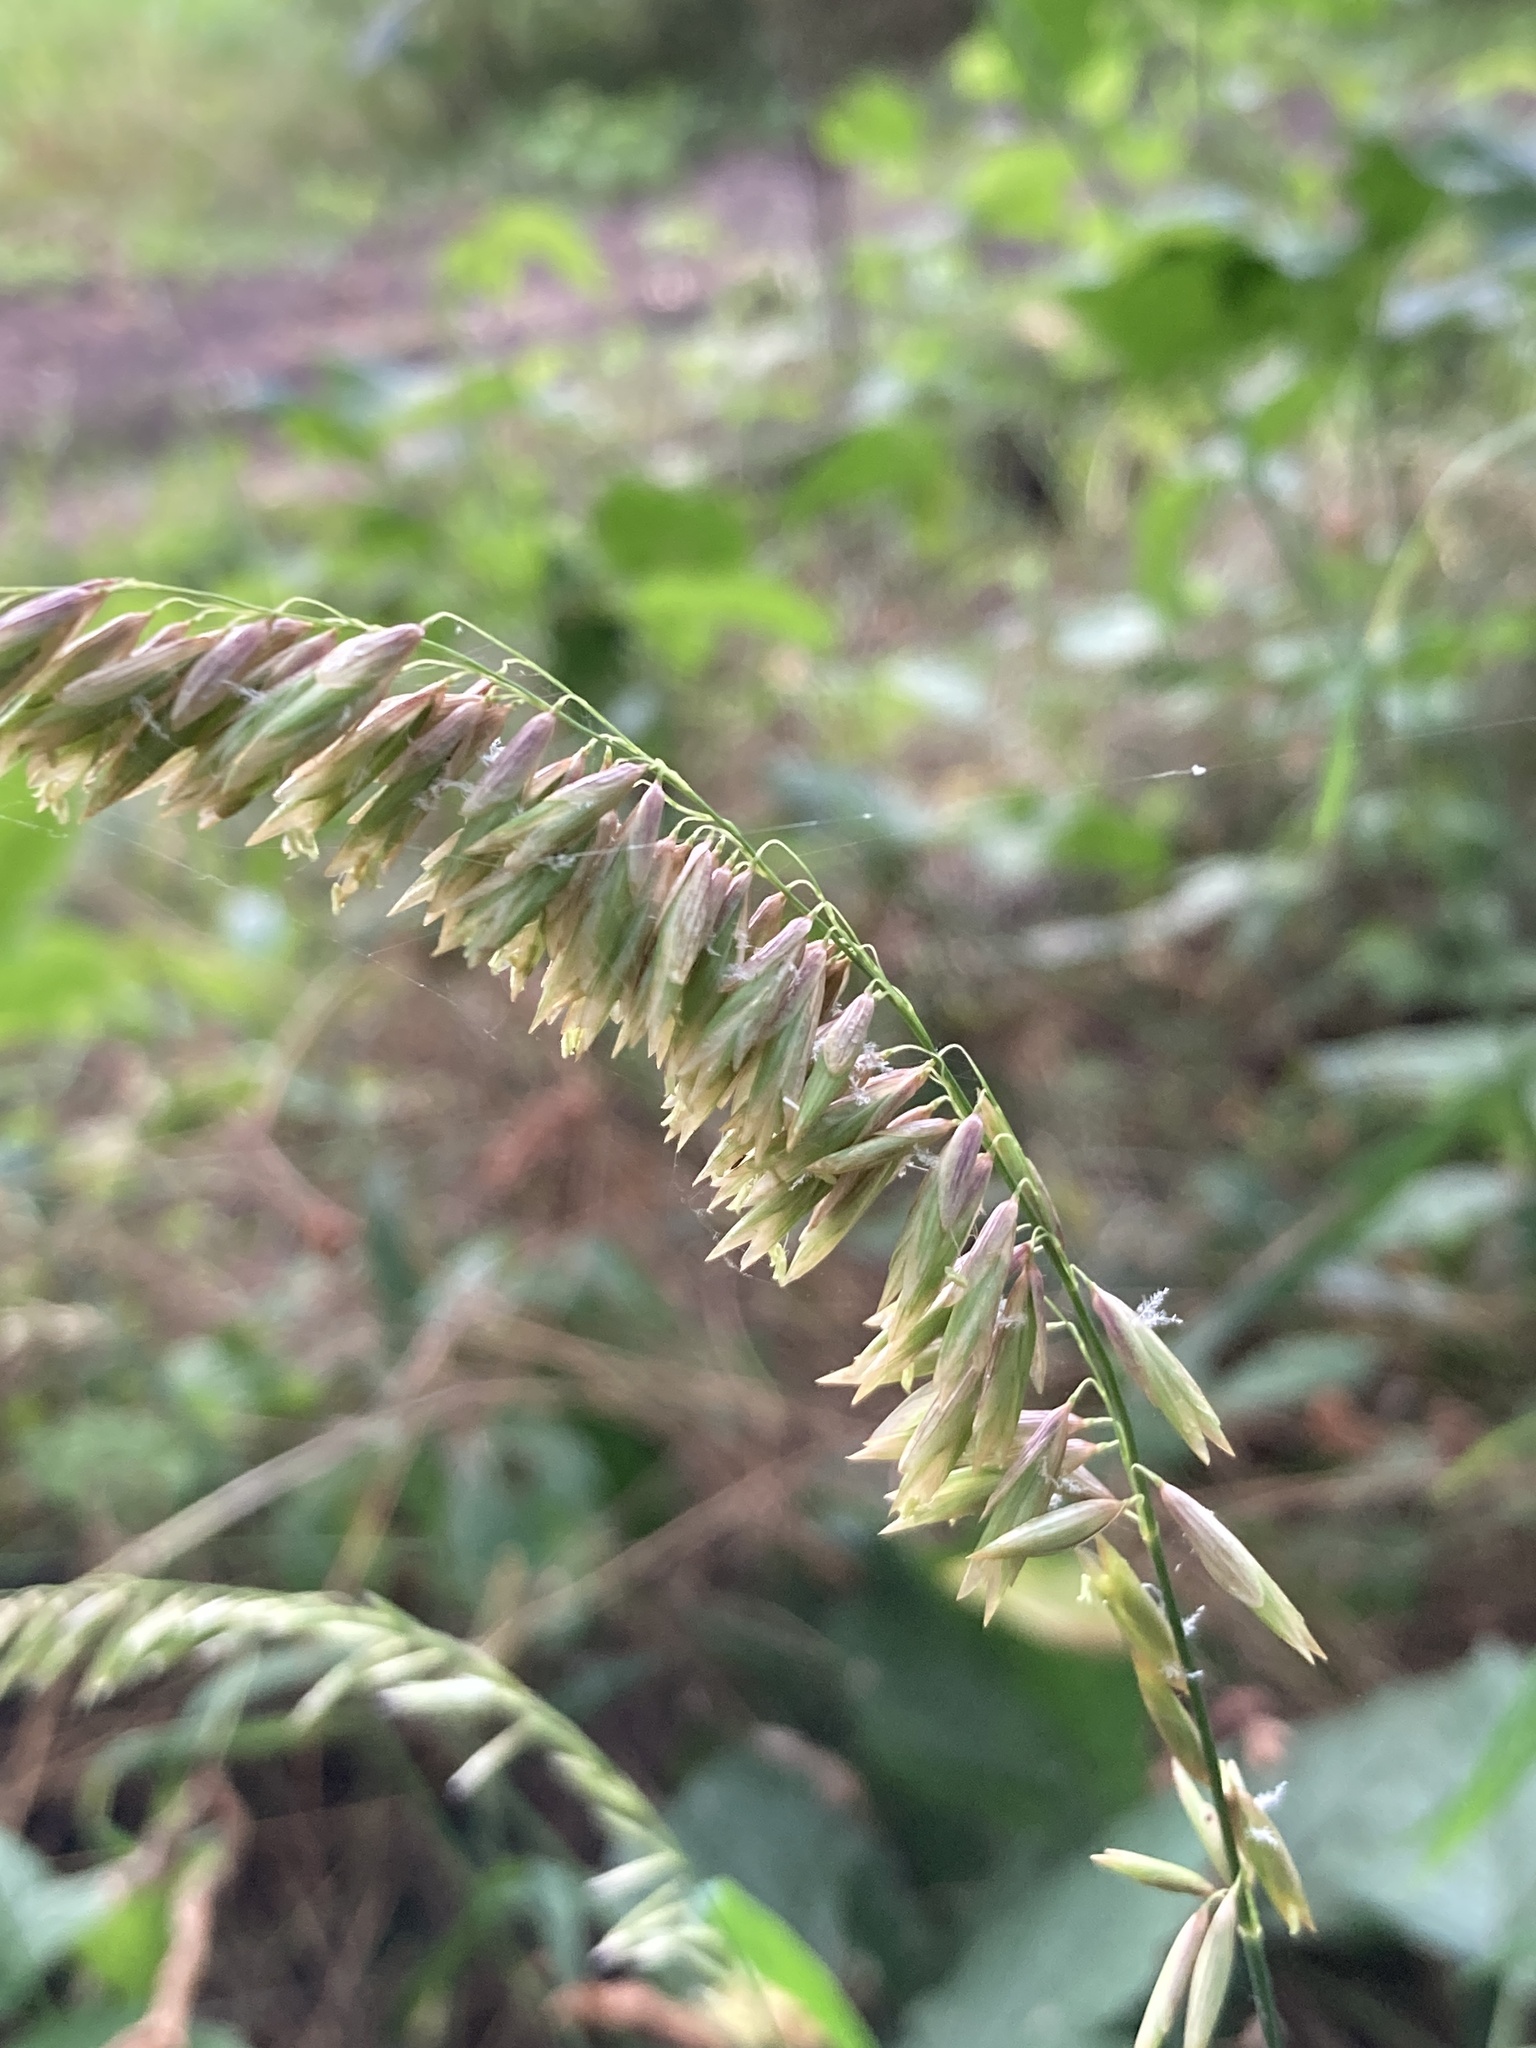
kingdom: Plantae
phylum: Tracheophyta
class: Liliopsida
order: Poales
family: Poaceae
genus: Melica
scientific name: Melica altissima
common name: Siberian melicgrass
